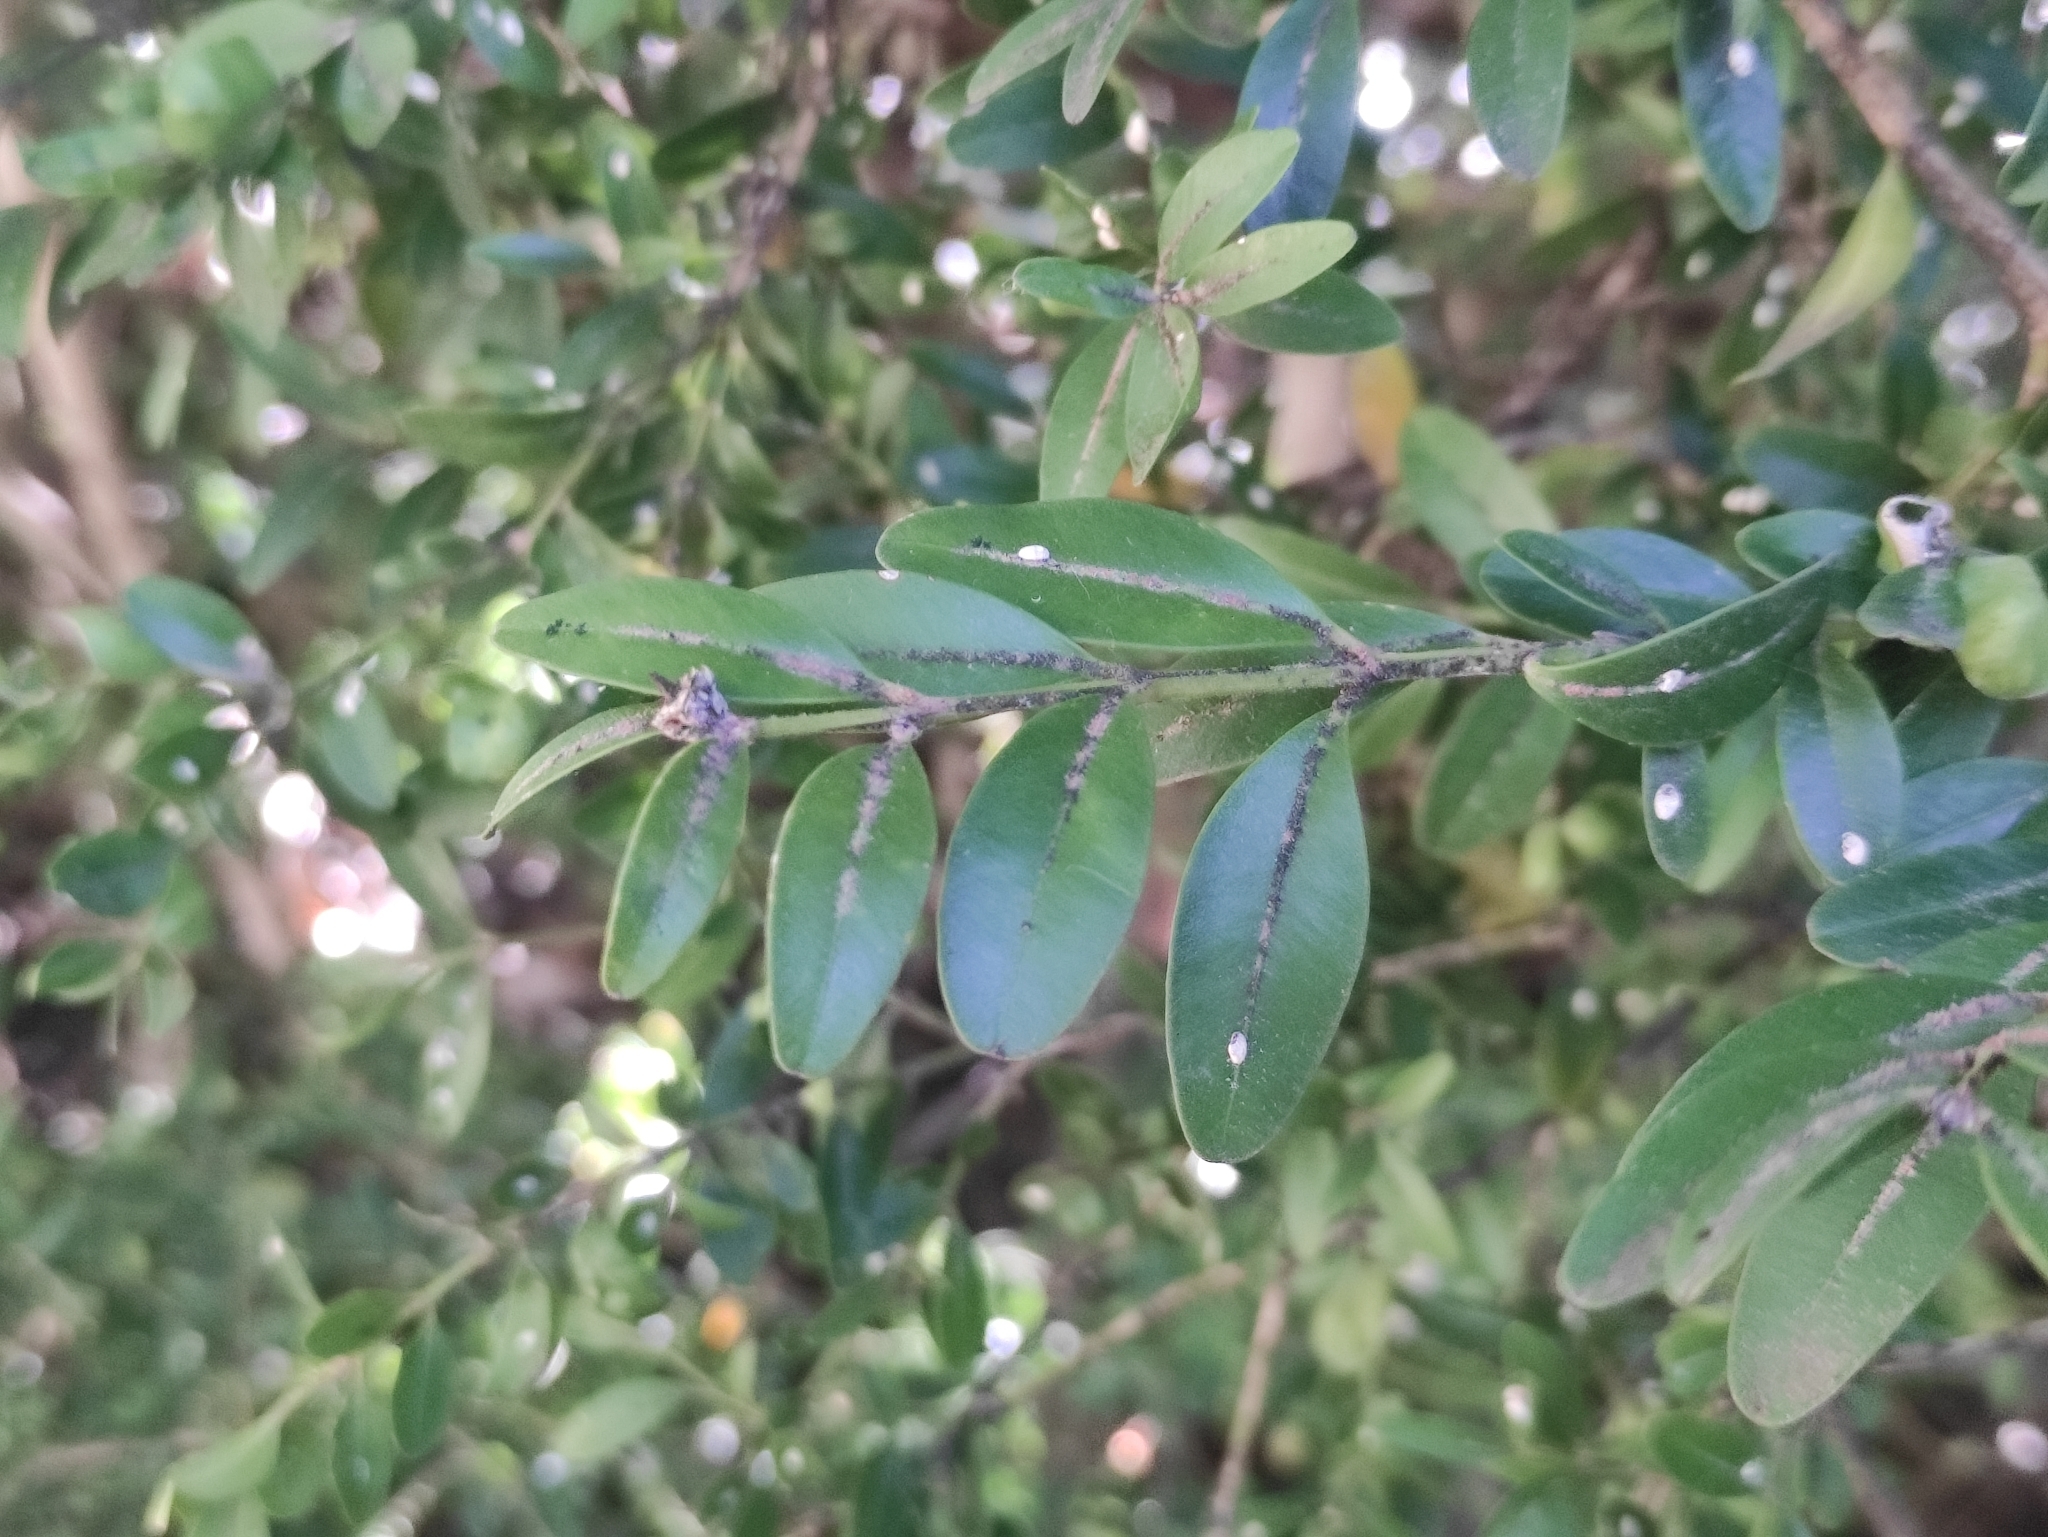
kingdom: Plantae
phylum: Tracheophyta
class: Magnoliopsida
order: Buxales
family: Buxaceae
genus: Buxus
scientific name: Buxus sempervirens
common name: Box
